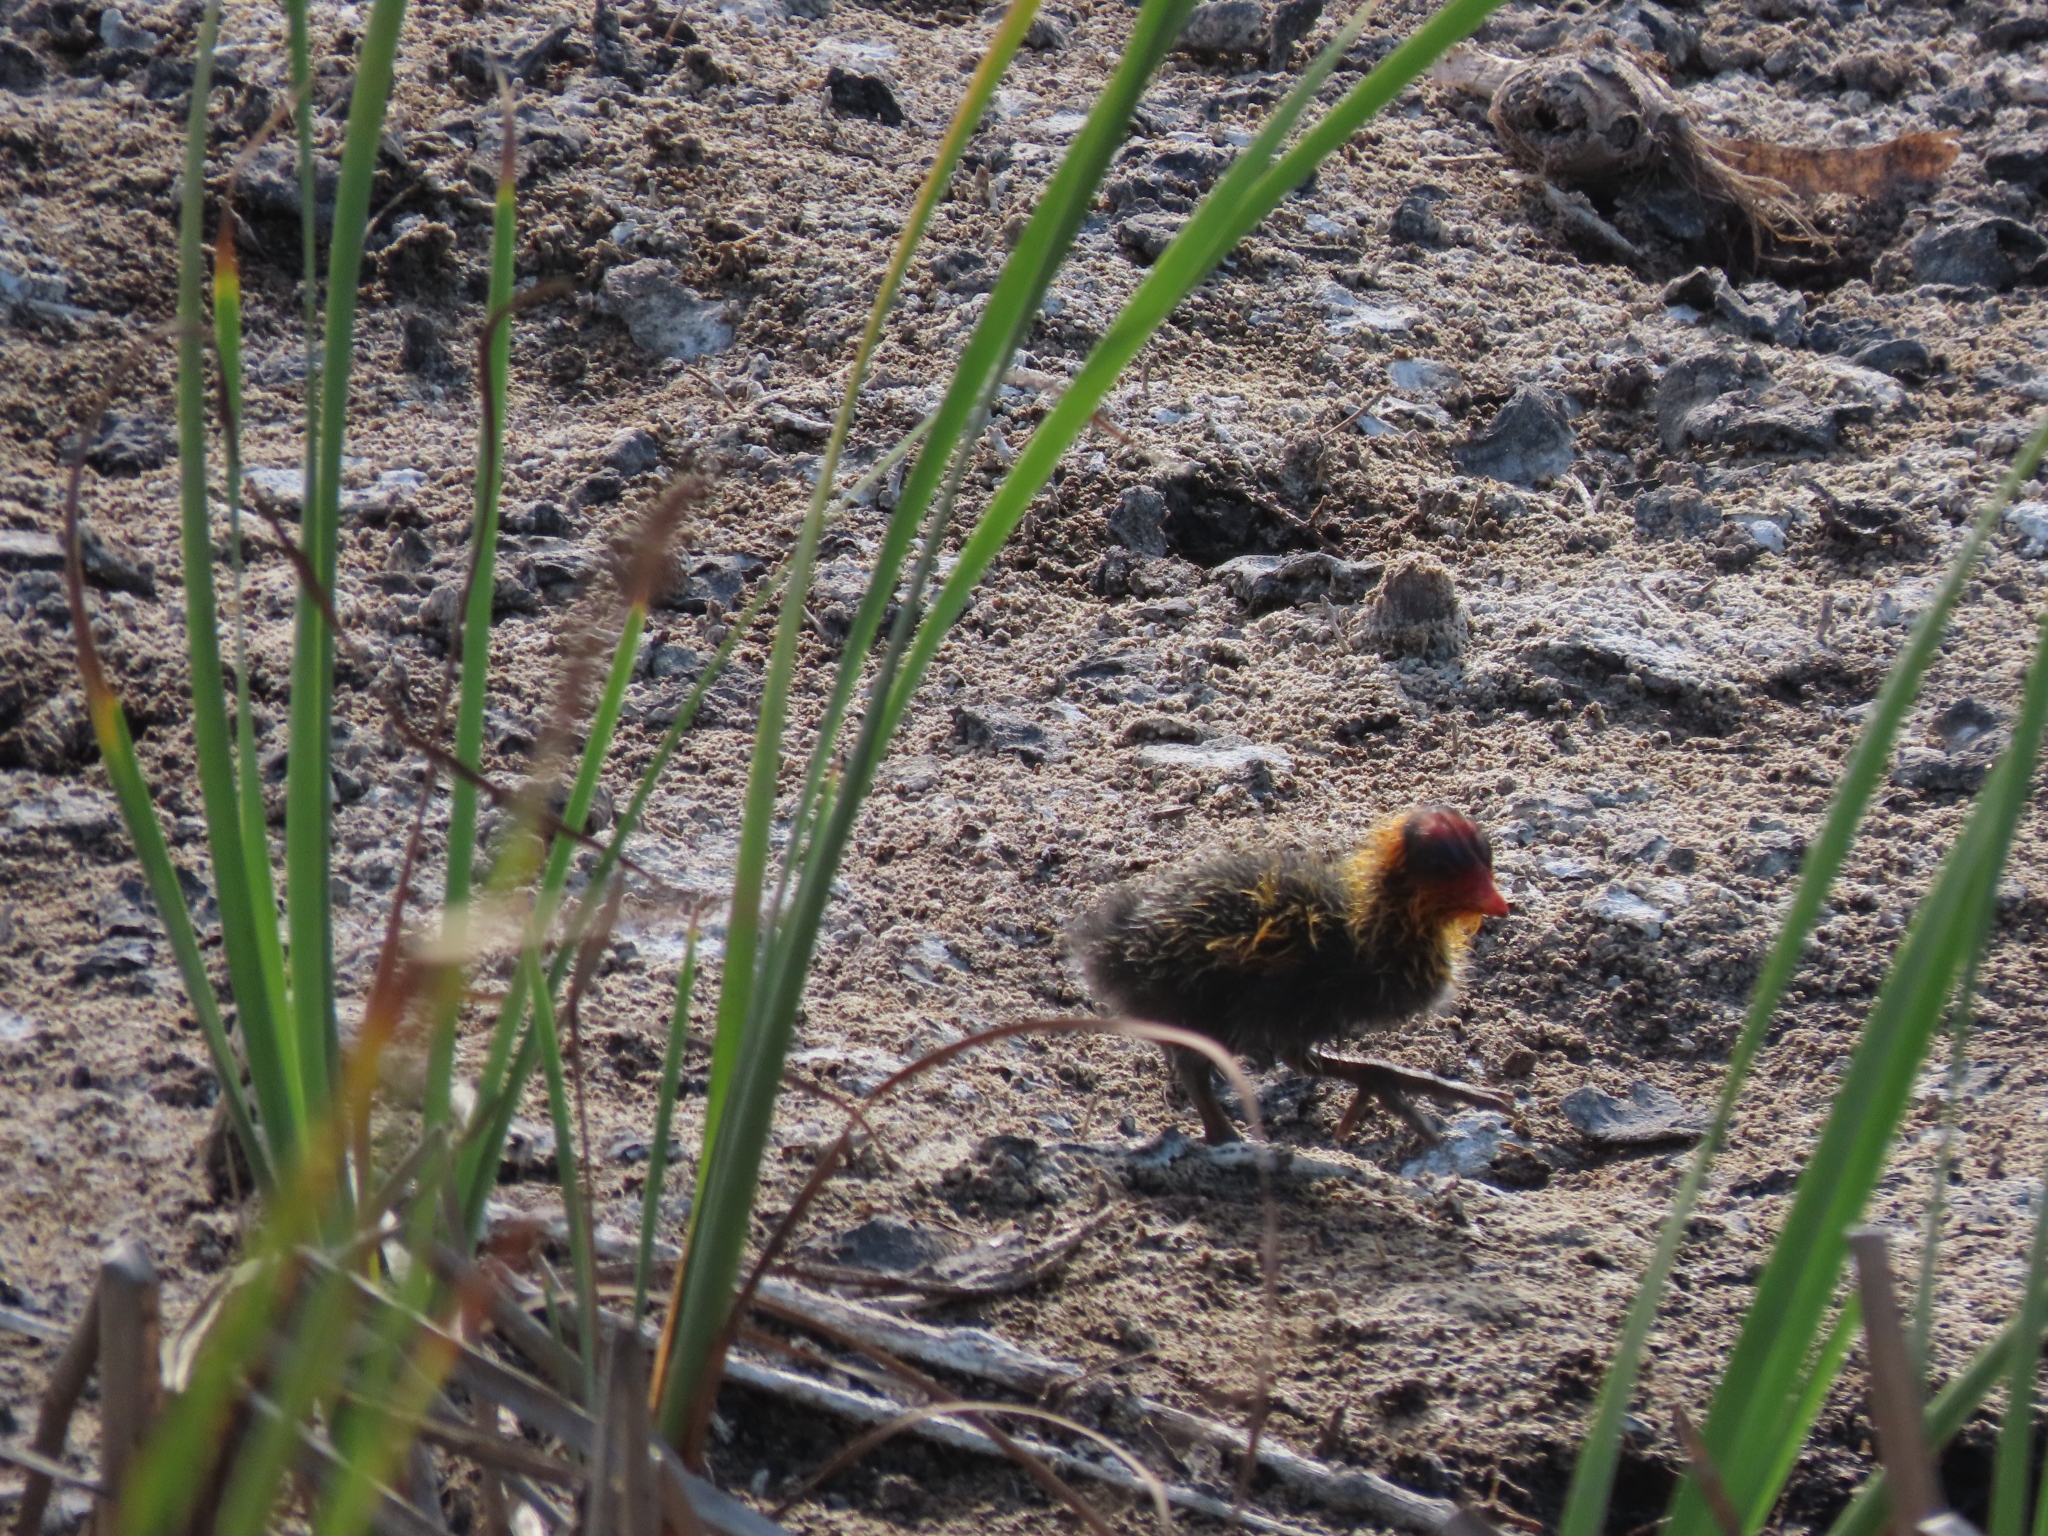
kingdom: Animalia
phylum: Chordata
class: Aves
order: Gruiformes
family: Rallidae
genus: Fulica
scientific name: Fulica americana
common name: American coot
